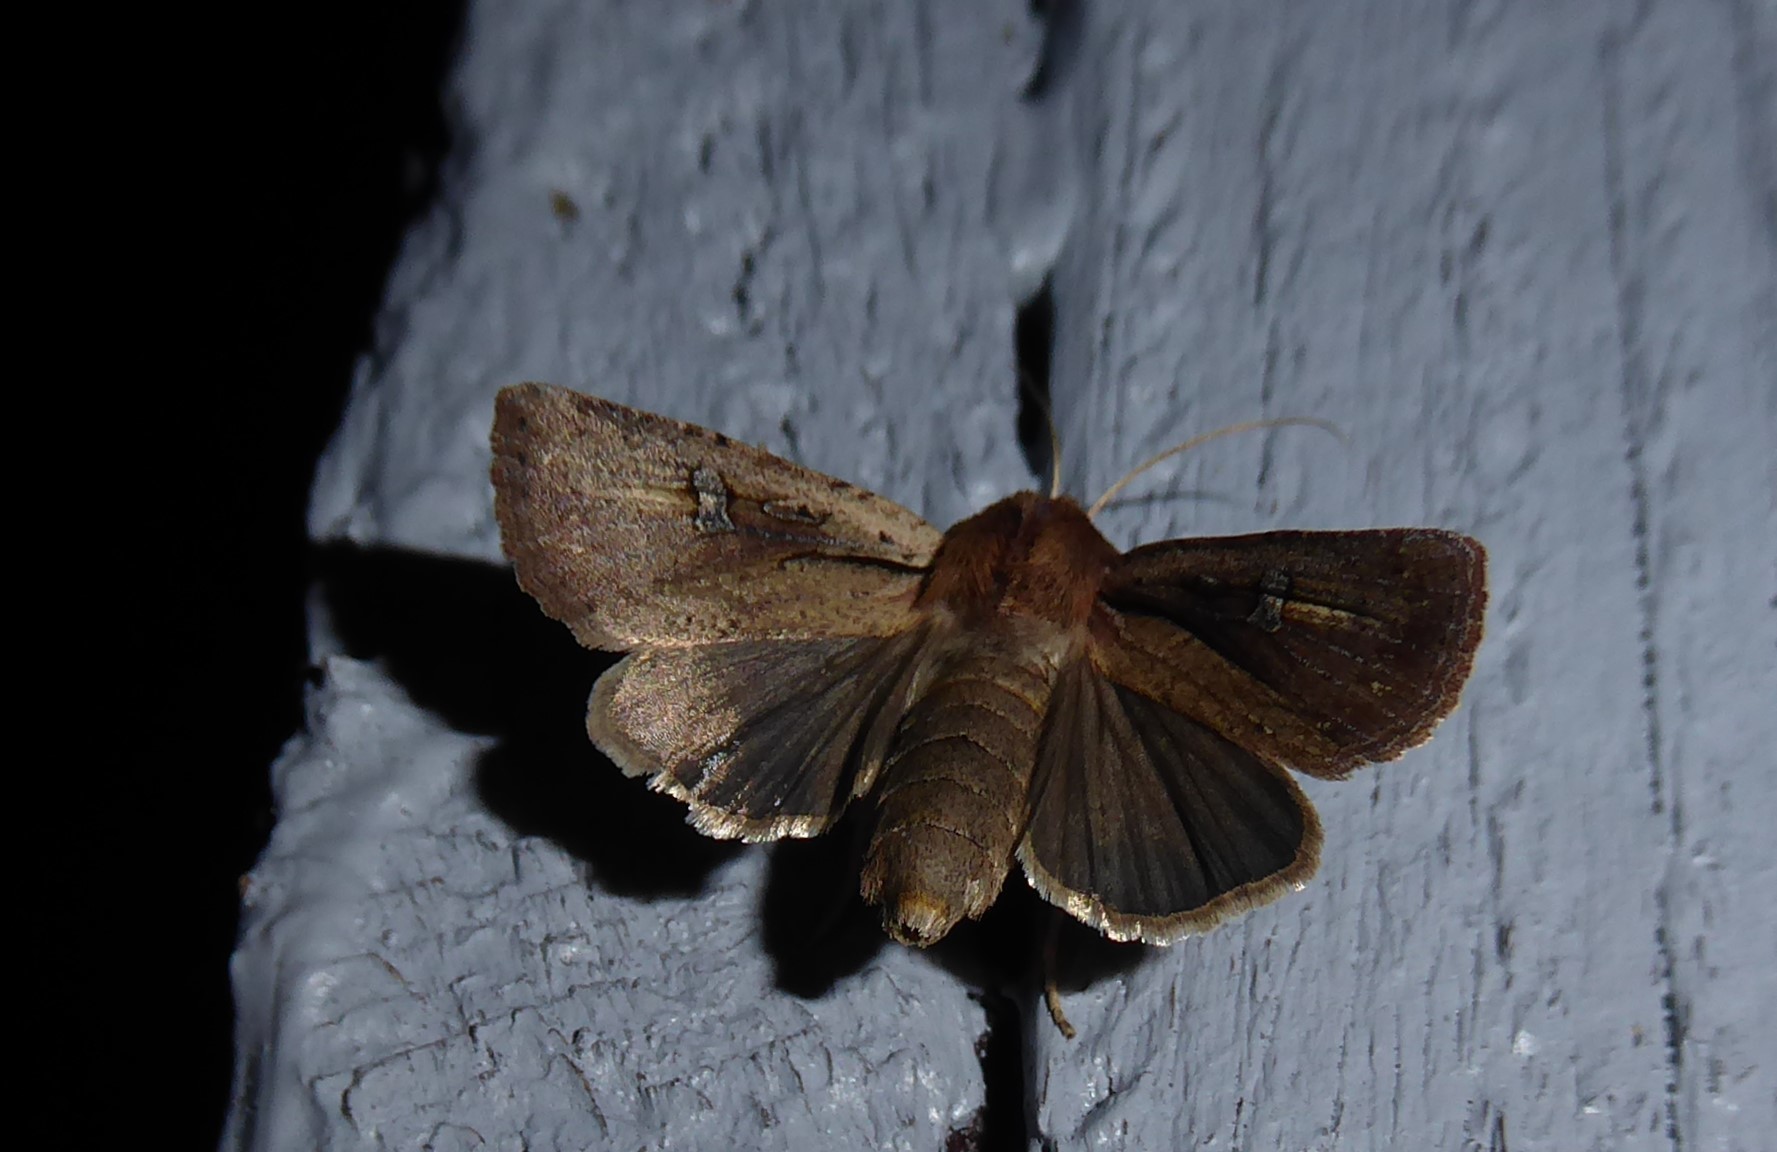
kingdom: Animalia
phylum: Arthropoda
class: Insecta
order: Lepidoptera
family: Noctuidae
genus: Ichneutica
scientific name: Ichneutica atristriga
